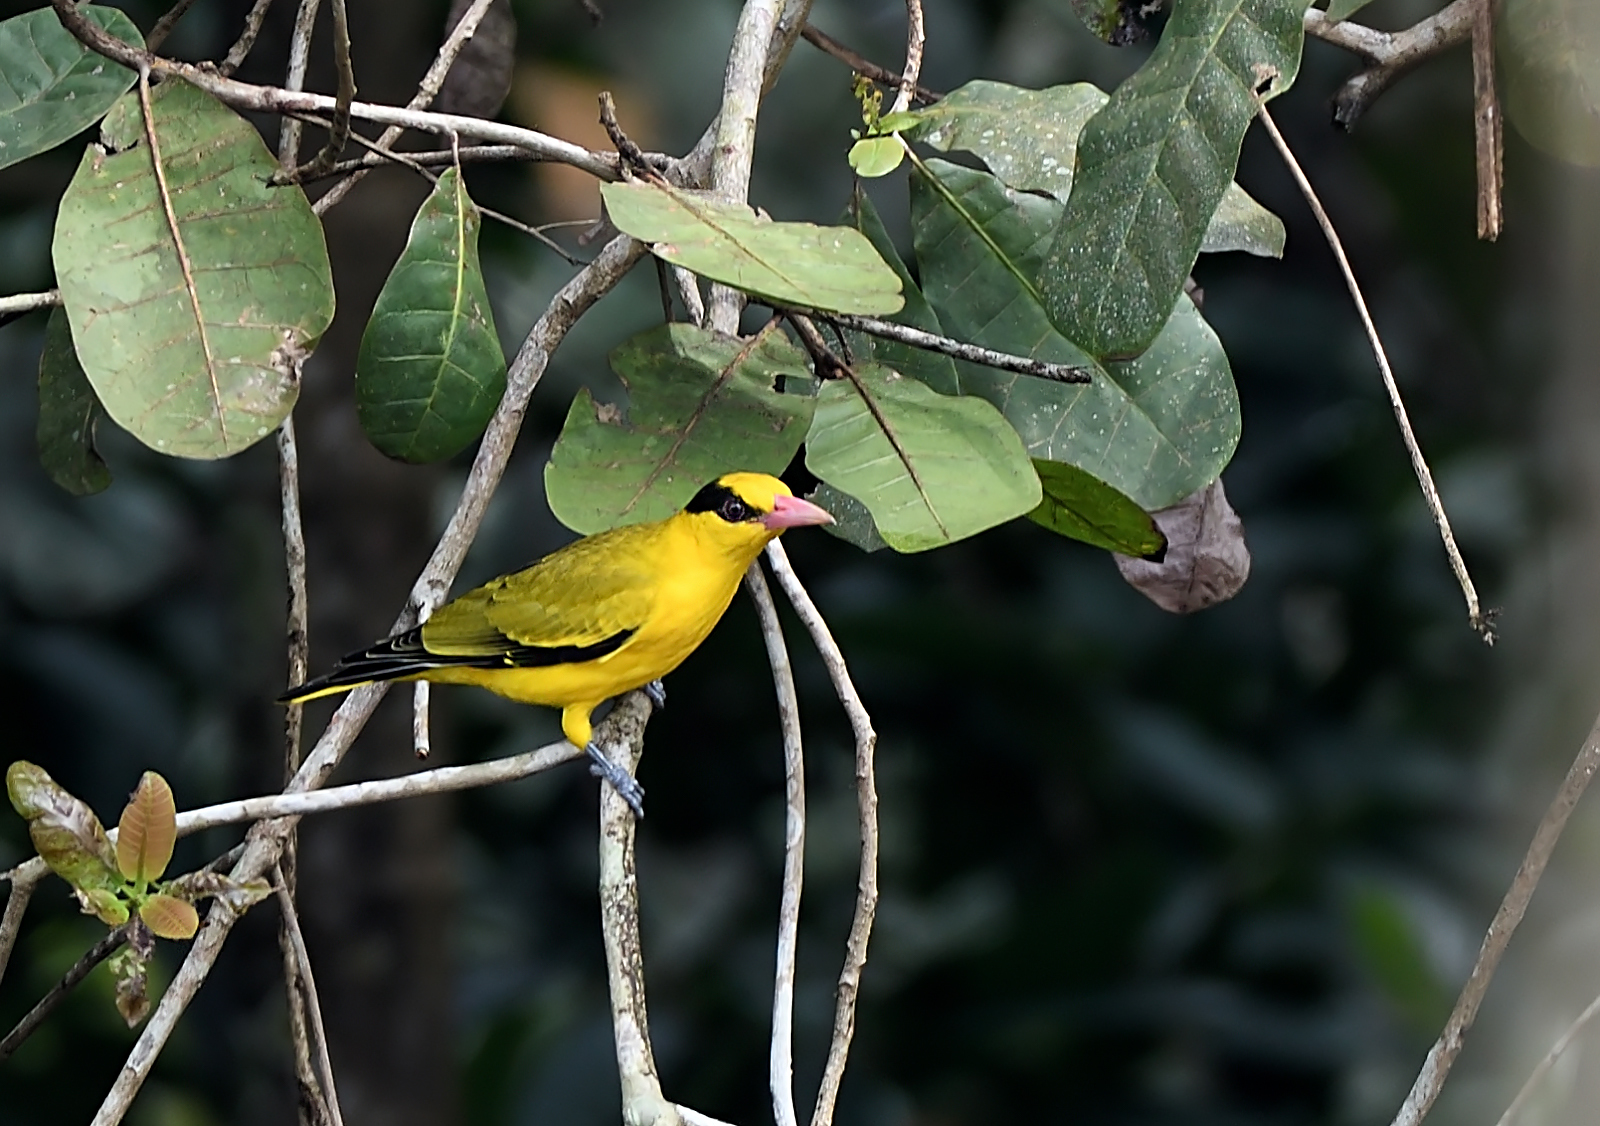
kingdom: Animalia
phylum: Chordata
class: Aves
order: Passeriformes
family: Oriolidae
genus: Oriolus
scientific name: Oriolus chinensis
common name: Black-naped oriole
